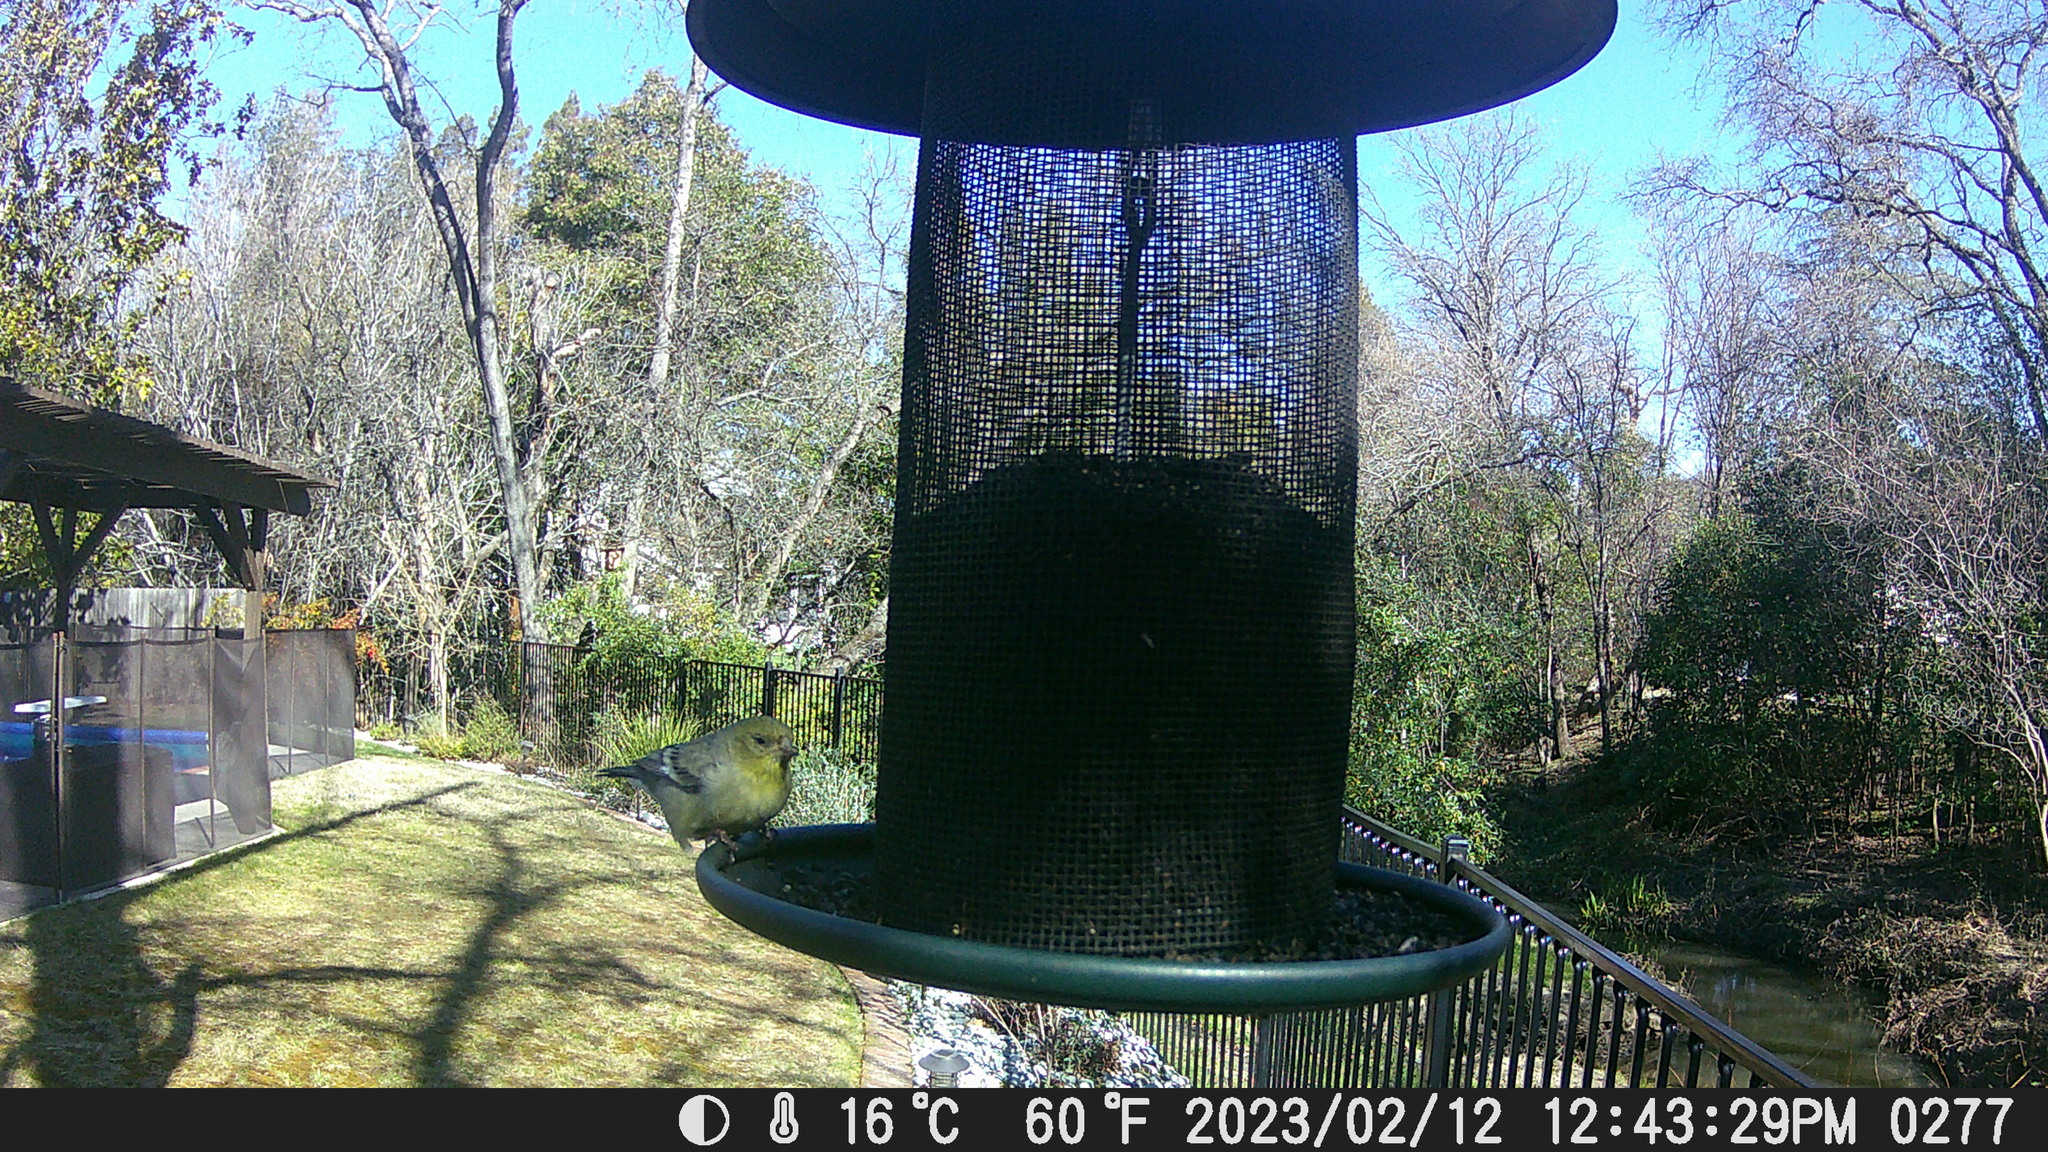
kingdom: Animalia
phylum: Chordata
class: Aves
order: Passeriformes
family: Fringillidae
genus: Spinus
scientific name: Spinus psaltria
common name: Lesser goldfinch
